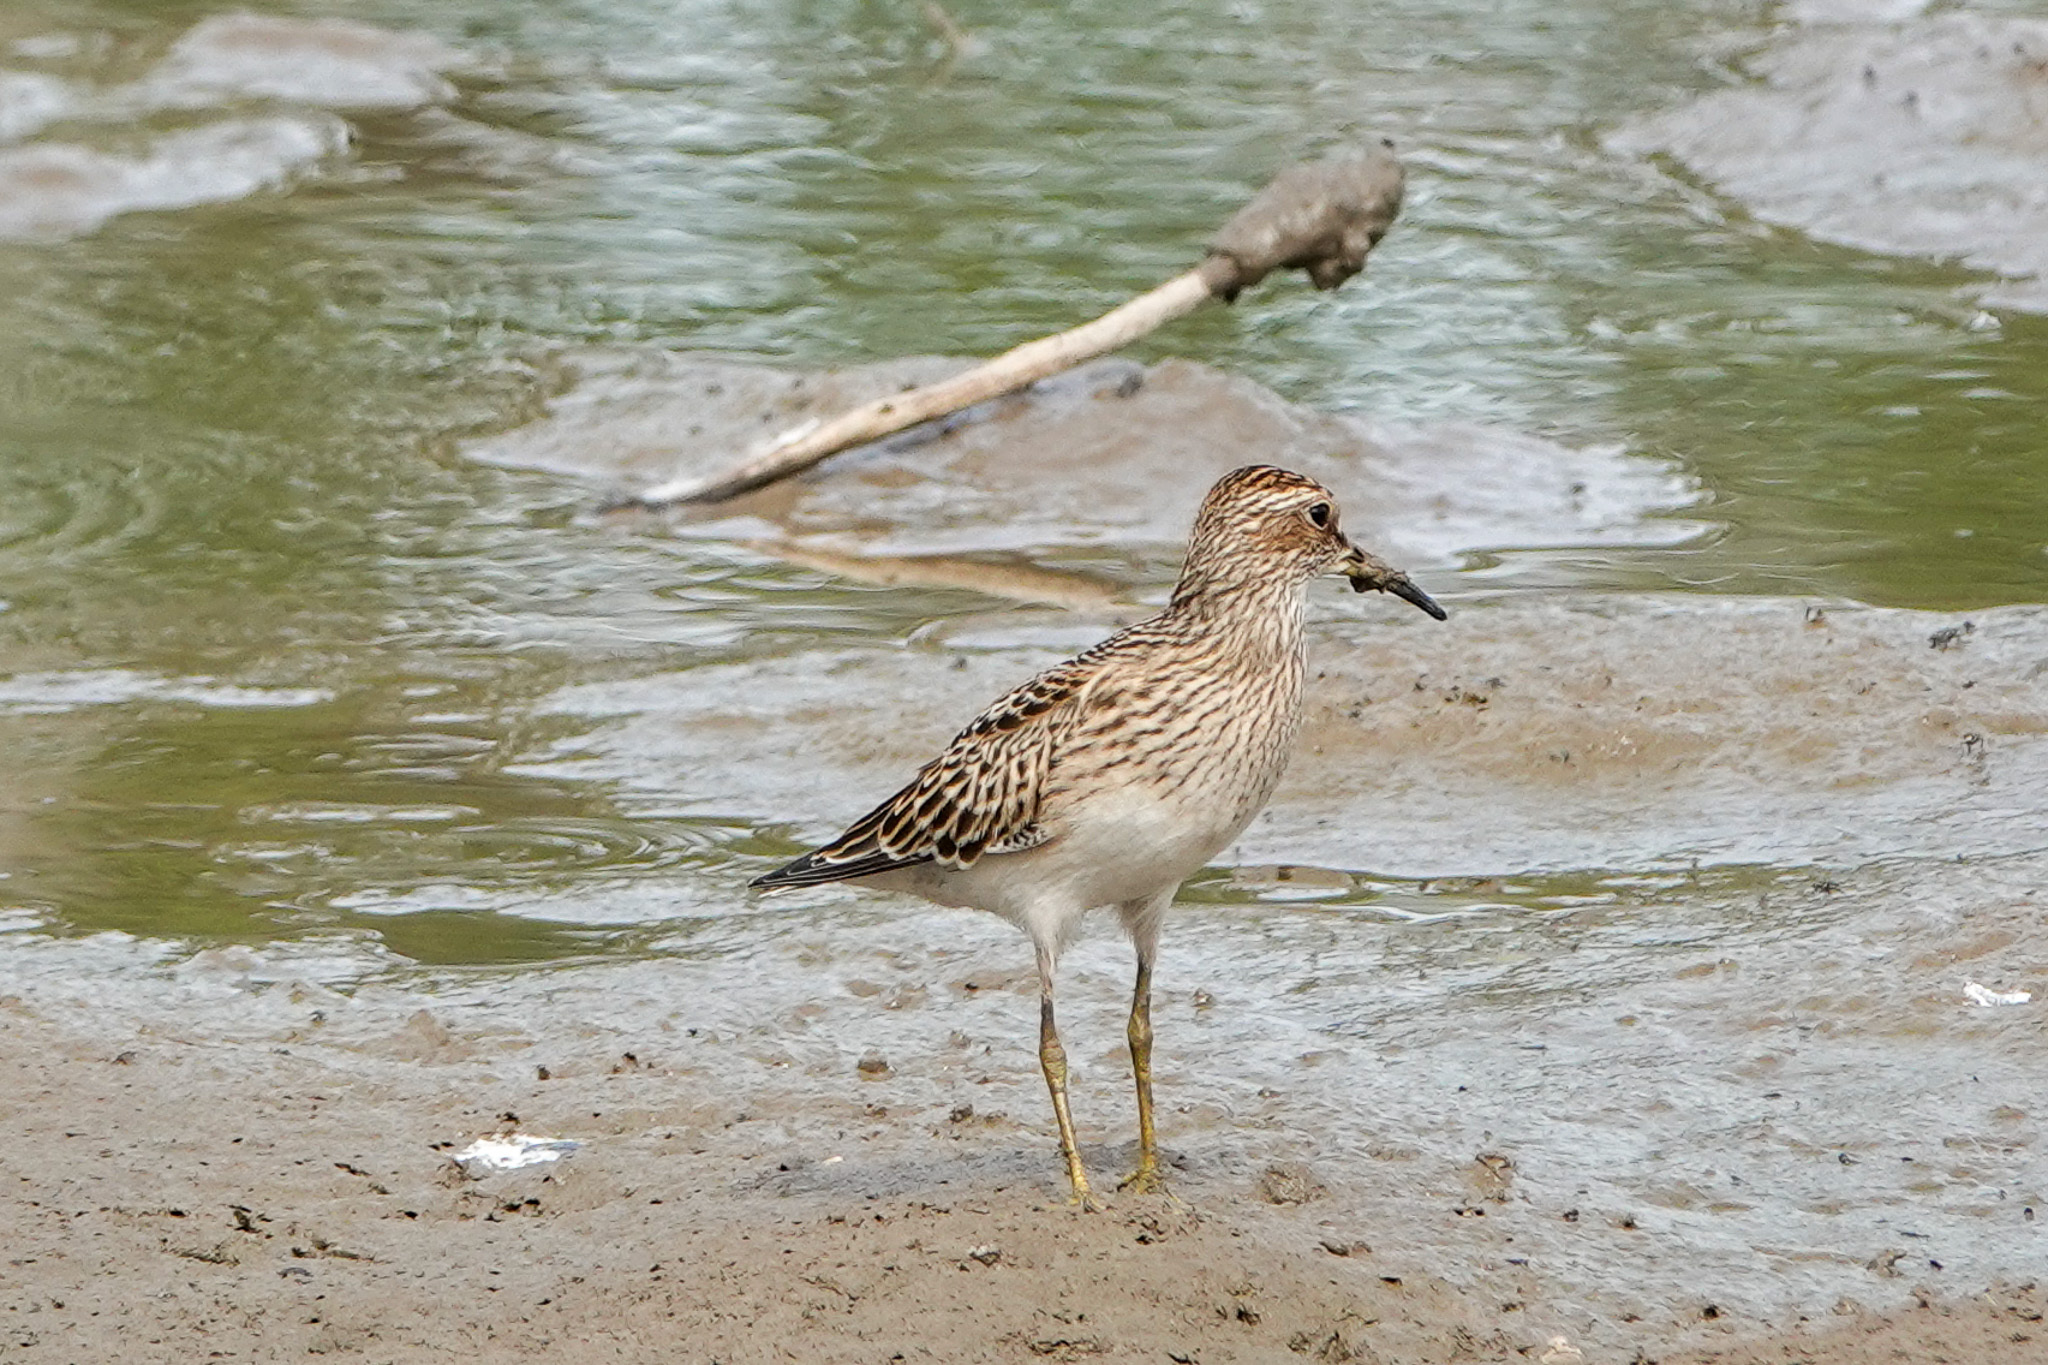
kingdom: Animalia
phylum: Chordata
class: Aves
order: Charadriiformes
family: Scolopacidae
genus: Calidris
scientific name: Calidris melanotos
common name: Pectoral sandpiper
